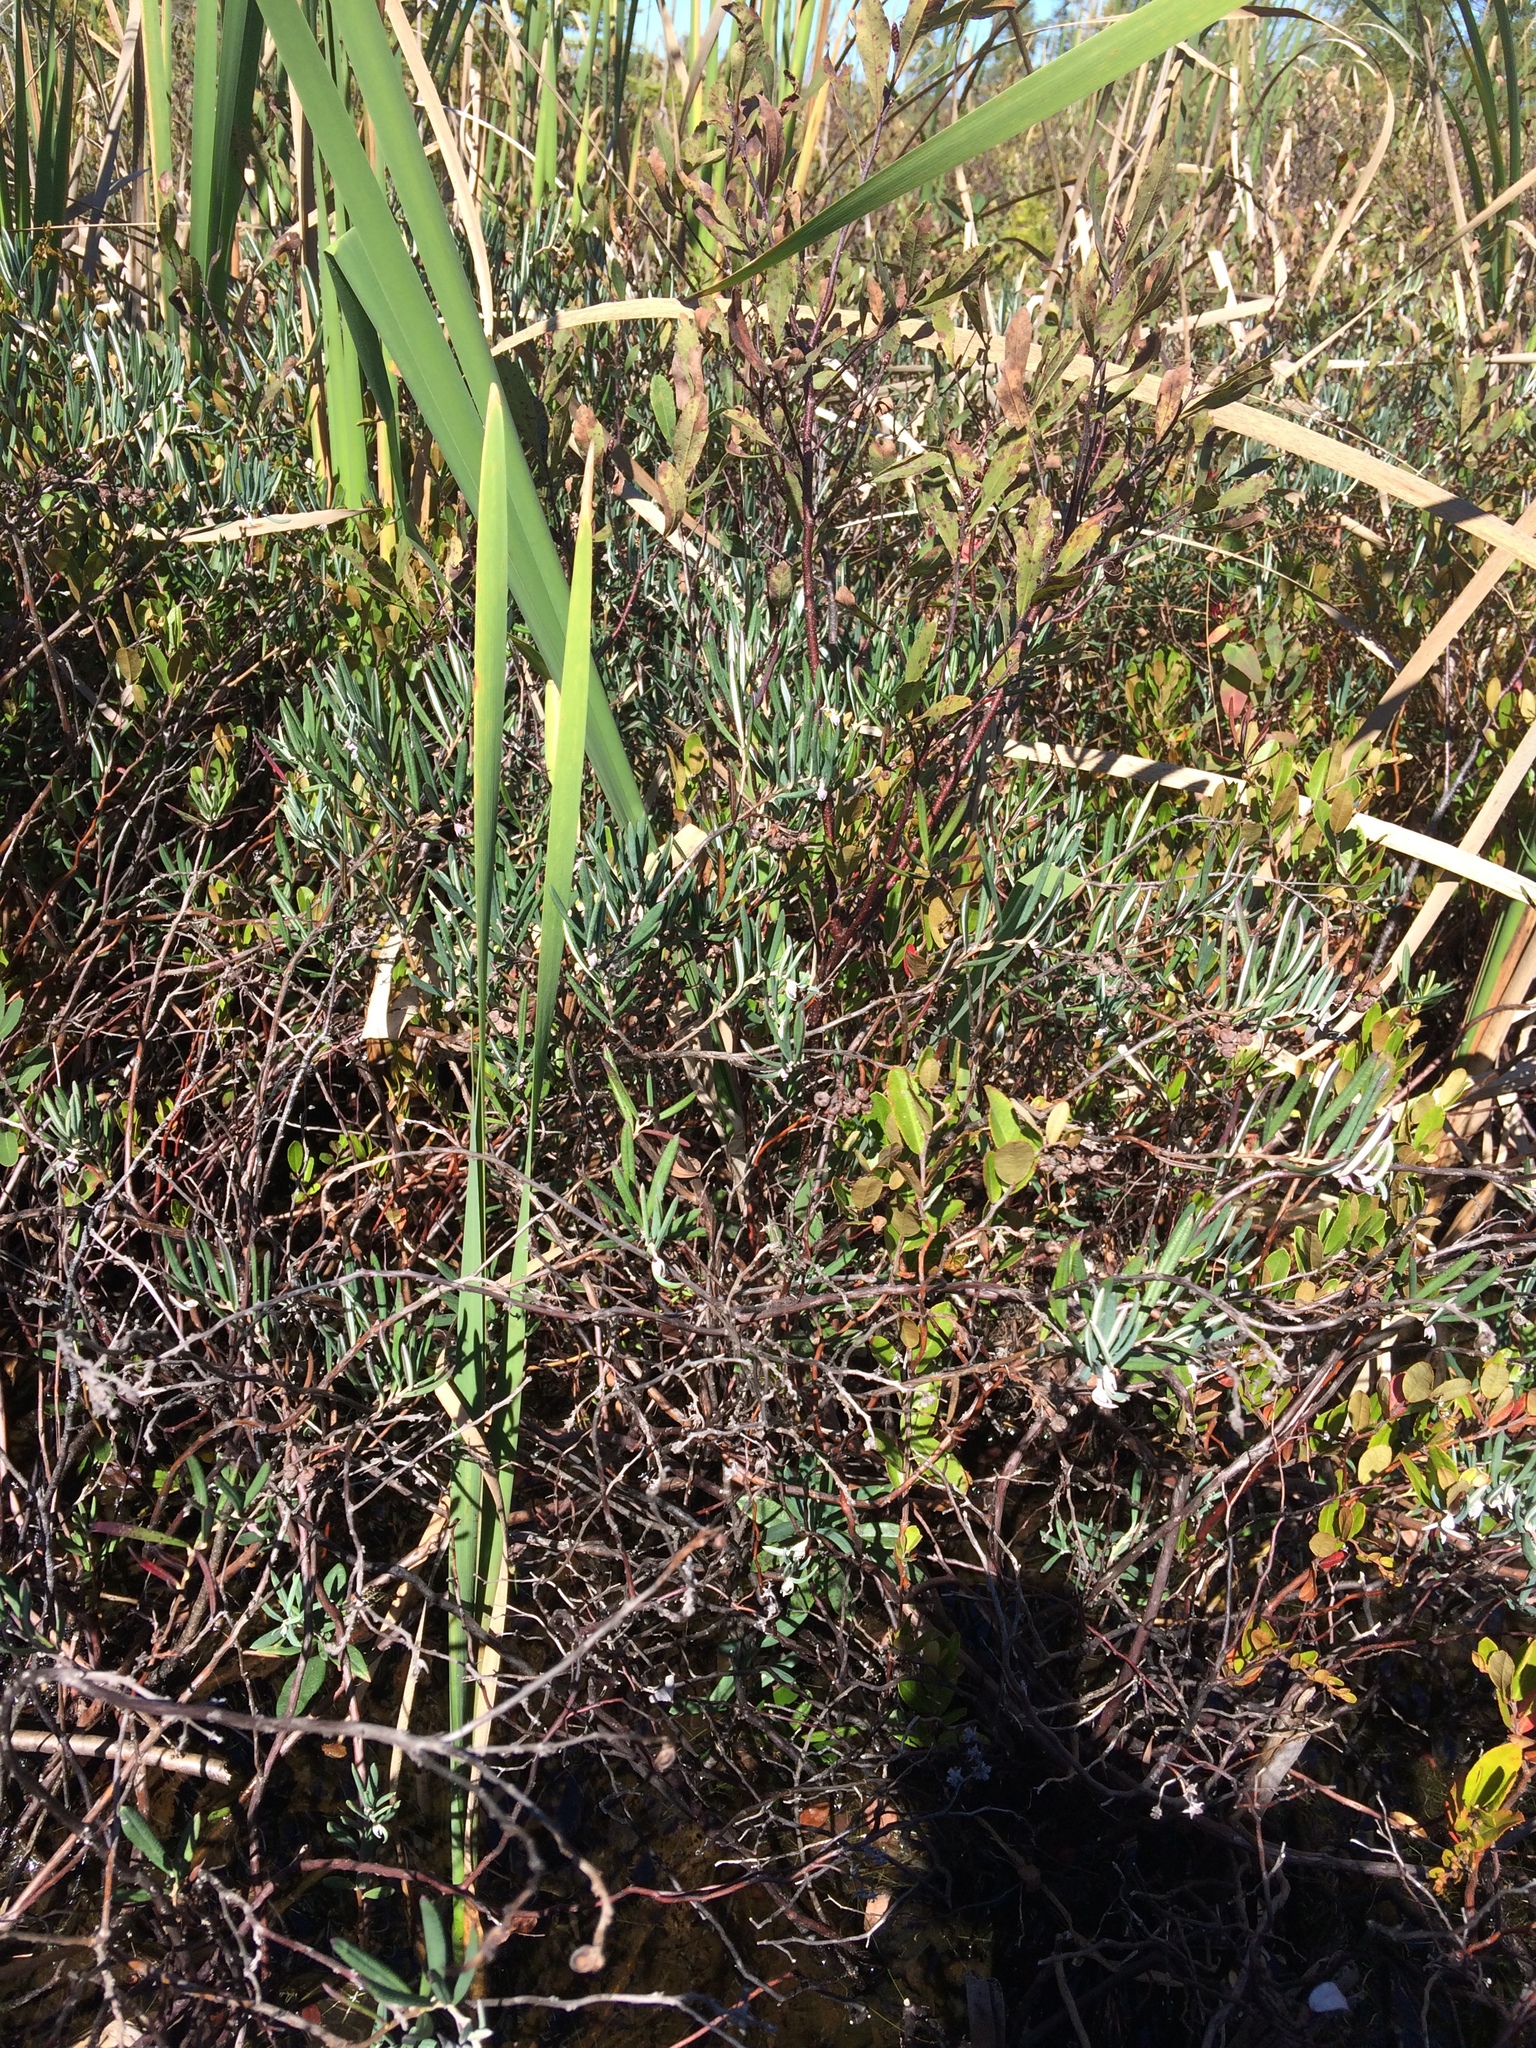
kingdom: Plantae
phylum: Tracheophyta
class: Magnoliopsida
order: Ericales
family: Ericaceae
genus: Andromeda
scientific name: Andromeda polifolia
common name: Bog-rosemary
